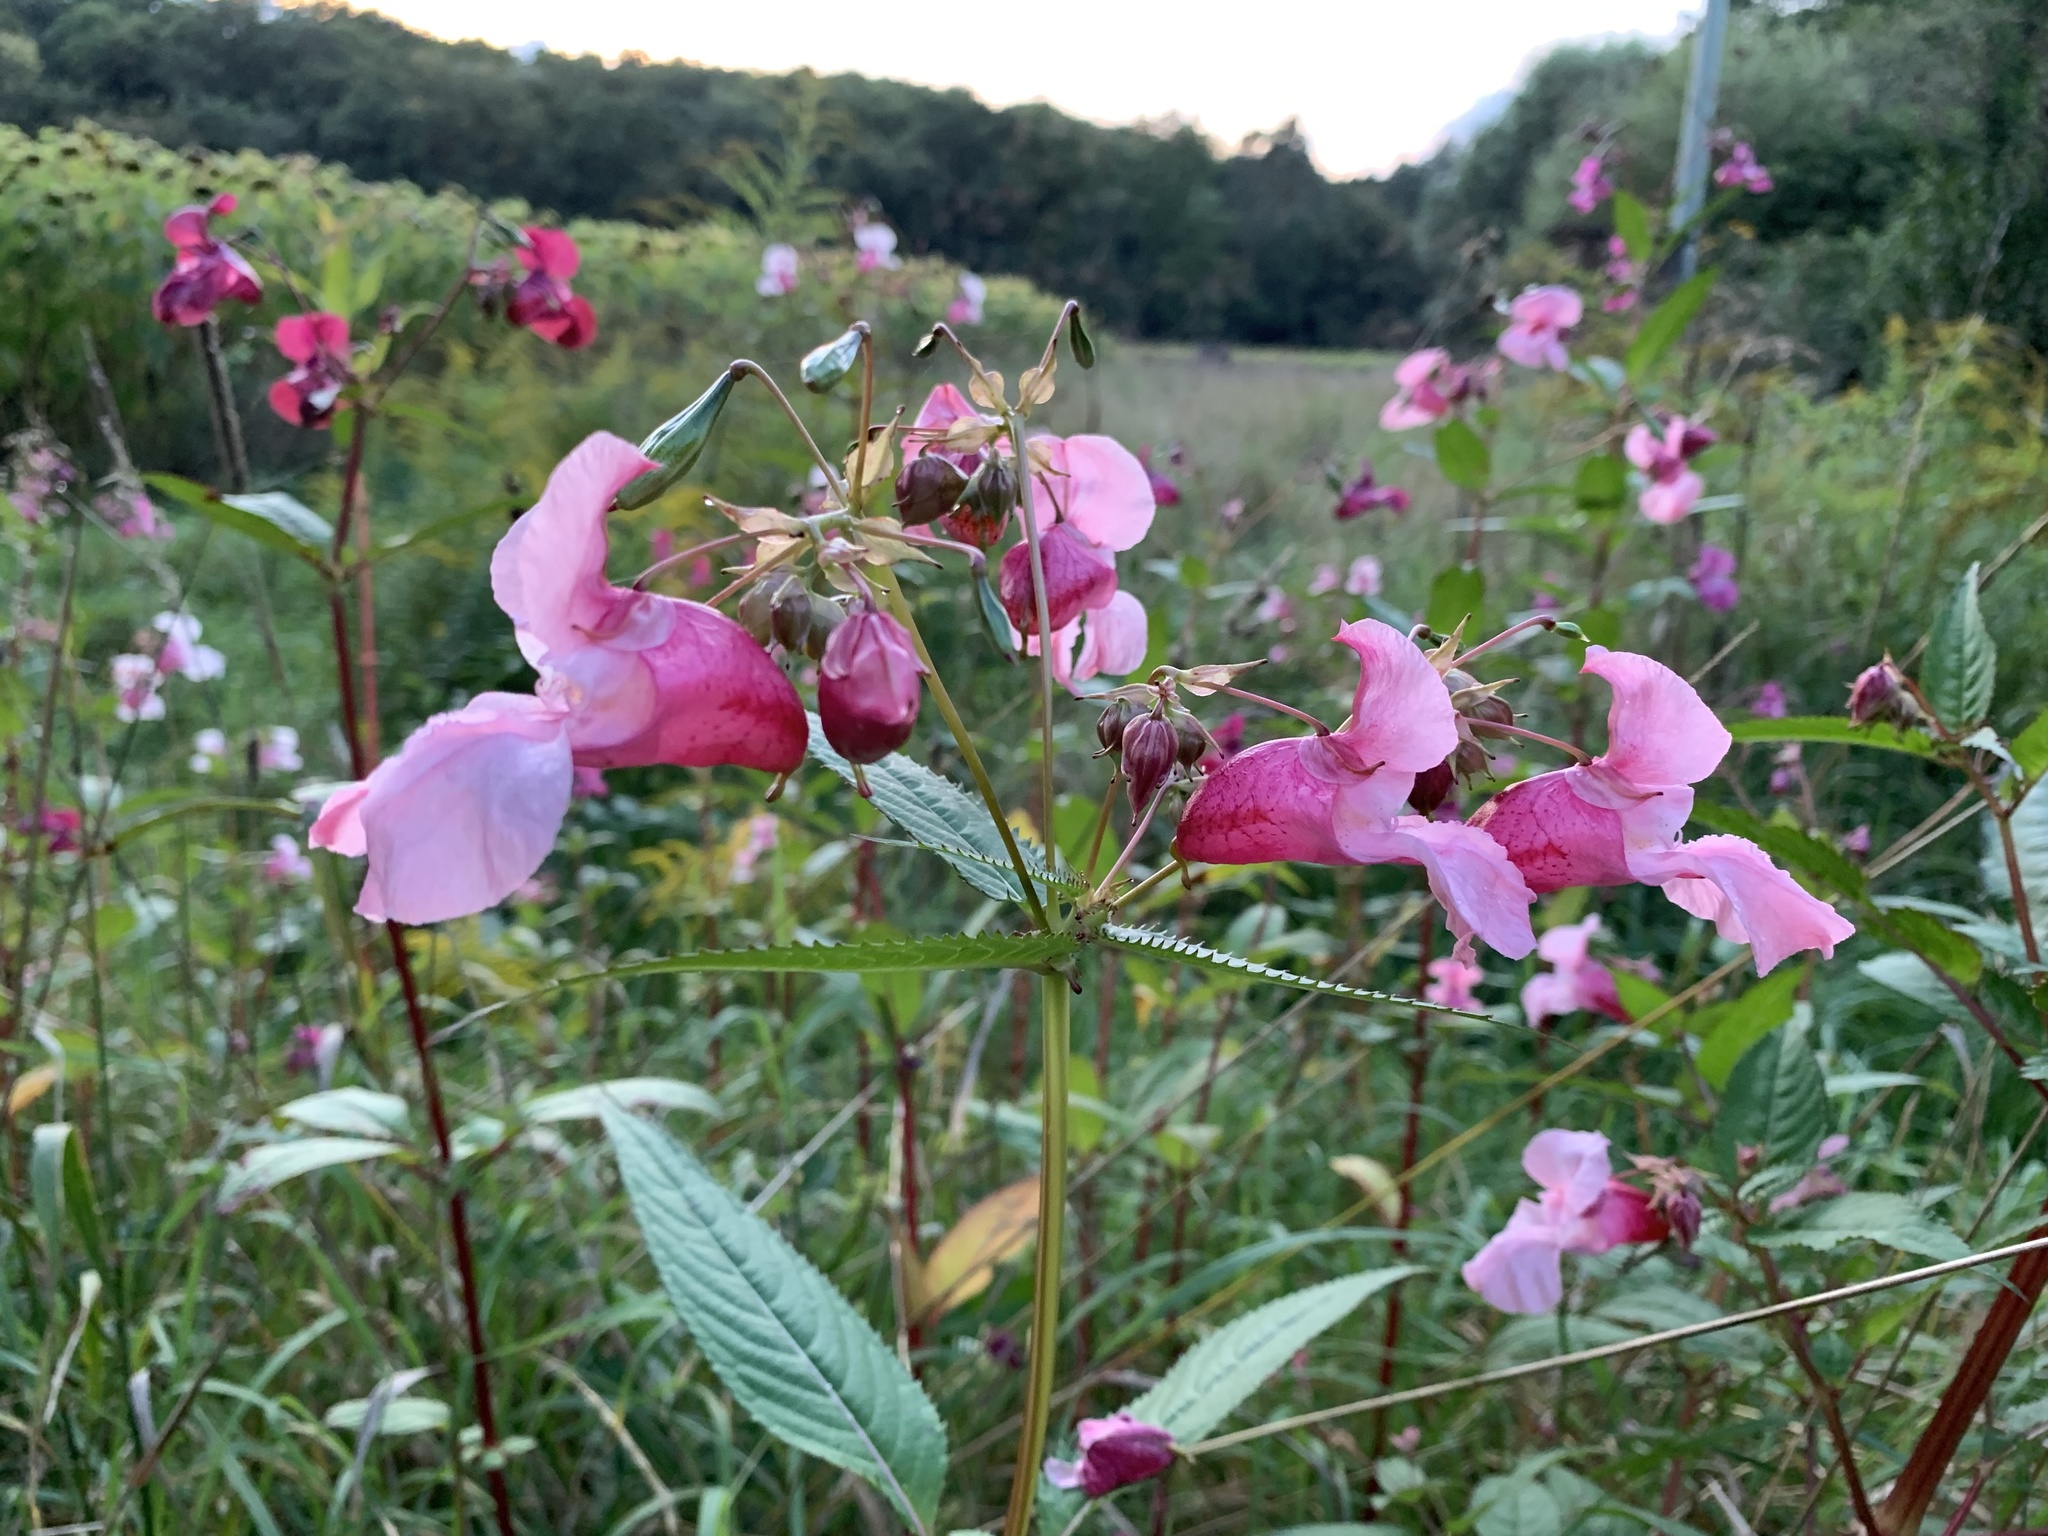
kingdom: Plantae
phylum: Tracheophyta
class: Magnoliopsida
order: Ericales
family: Balsaminaceae
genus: Impatiens
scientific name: Impatiens glandulifera
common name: Himalayan balsam
